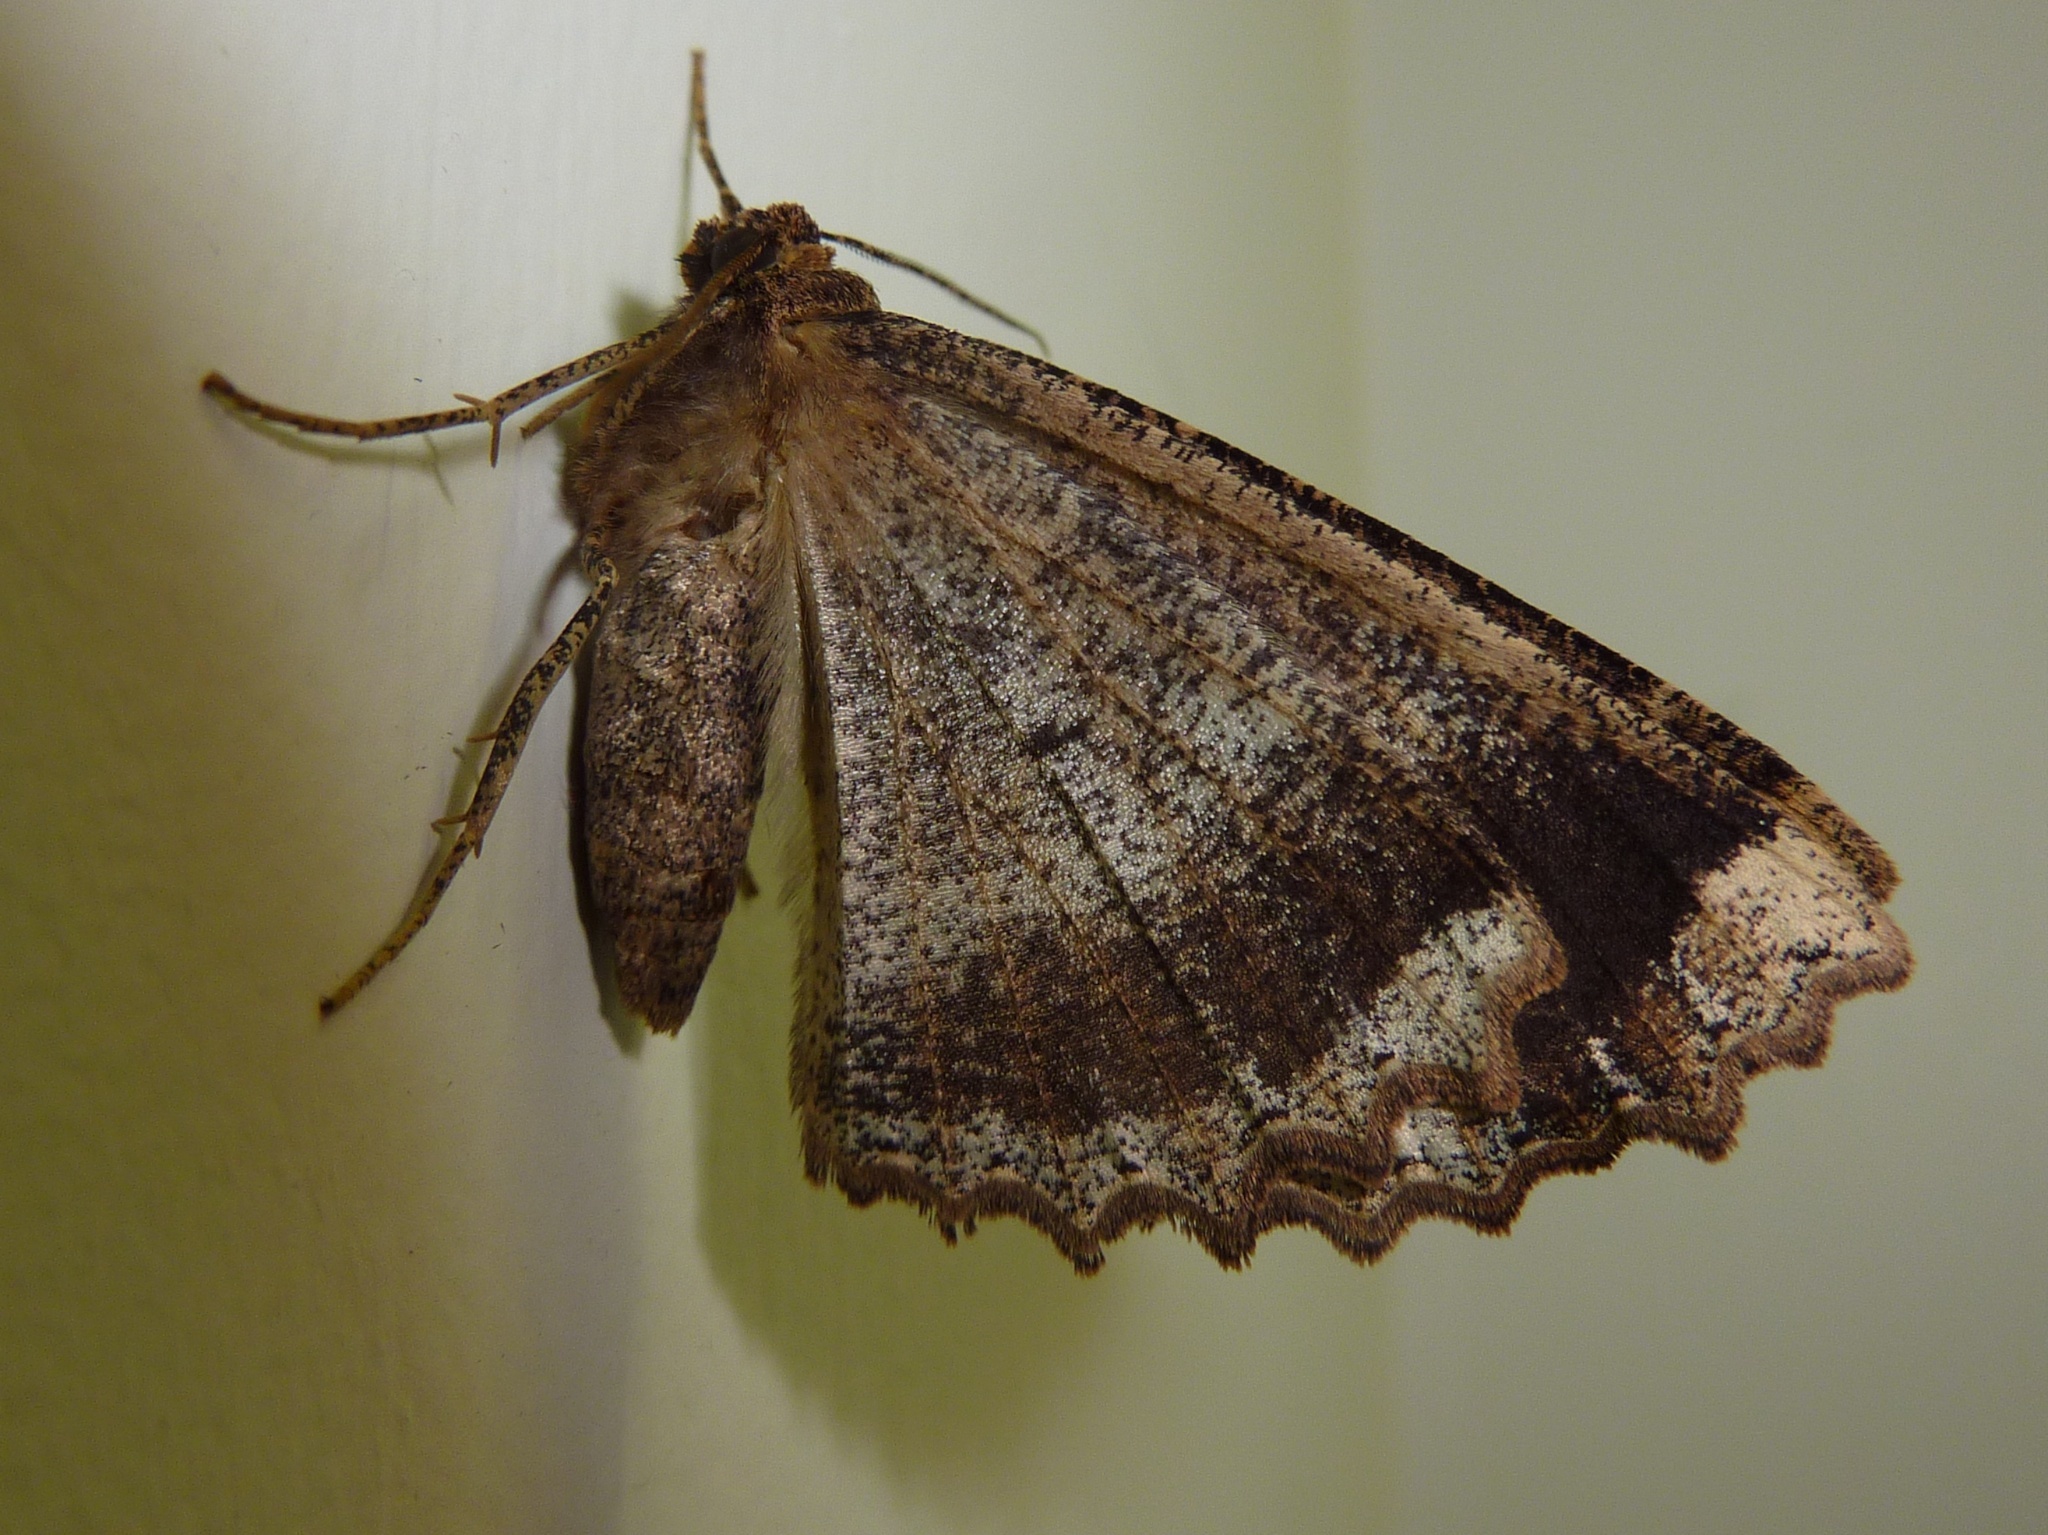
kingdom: Animalia
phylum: Arthropoda
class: Insecta
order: Lepidoptera
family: Geometridae
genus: Gellonia
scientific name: Gellonia dejectaria
